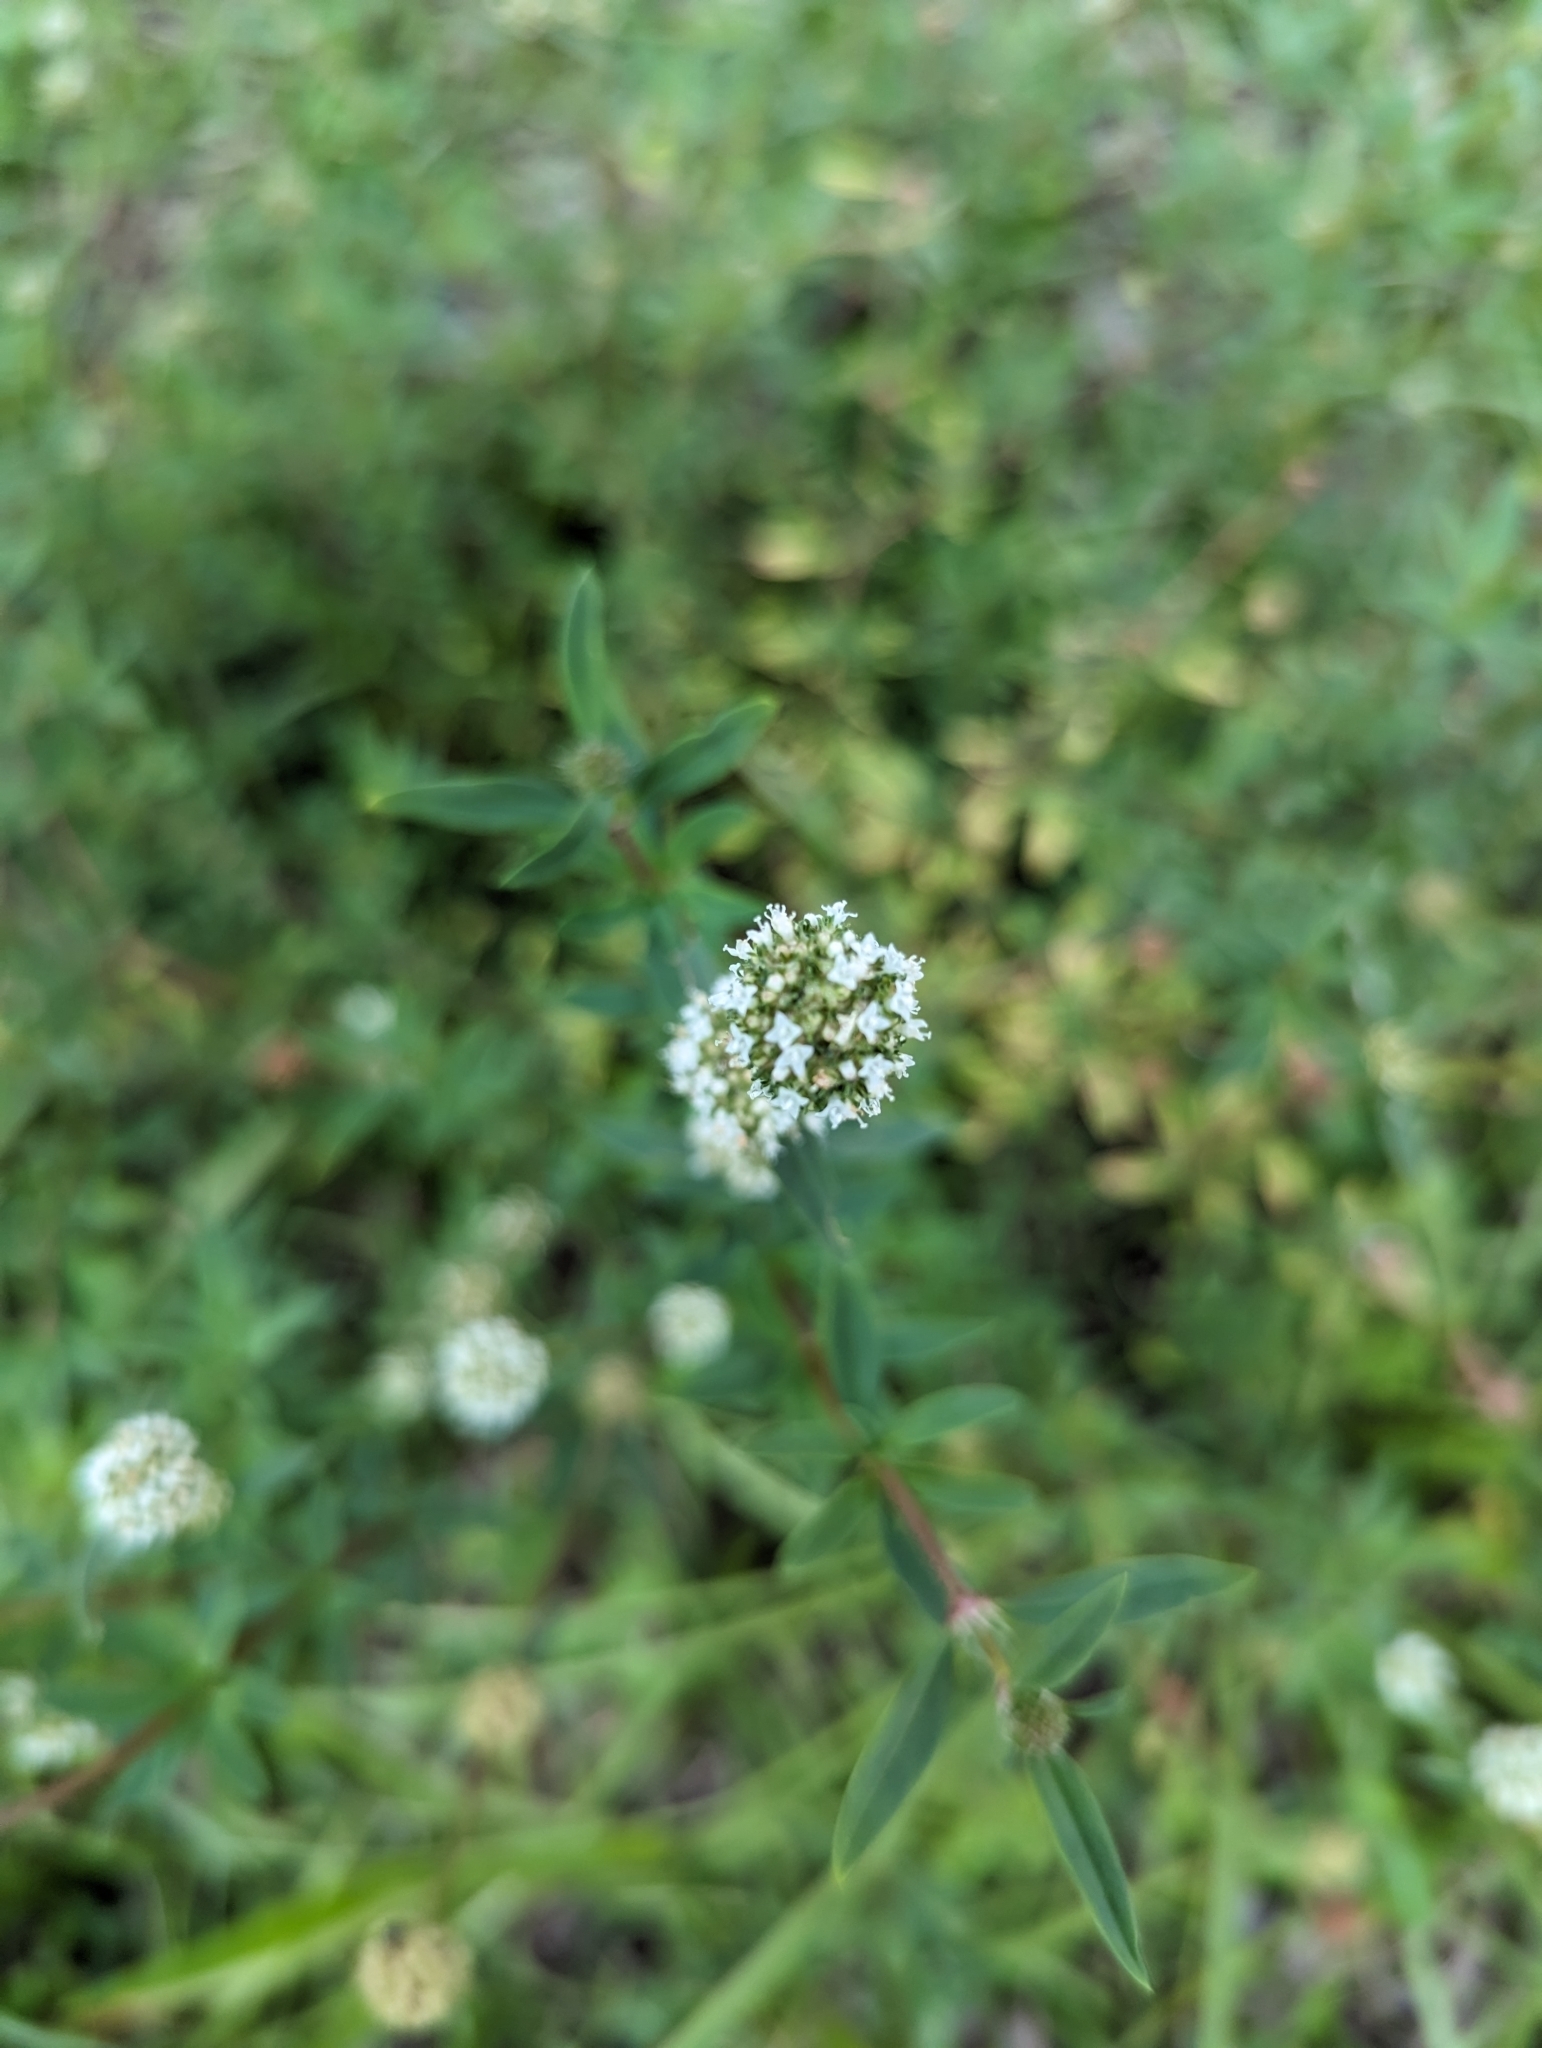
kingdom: Plantae
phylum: Tracheophyta
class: Magnoliopsida
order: Gentianales
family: Rubiaceae
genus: Spermacoce
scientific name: Spermacoce verticillata
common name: Shrubby false buttonweed
